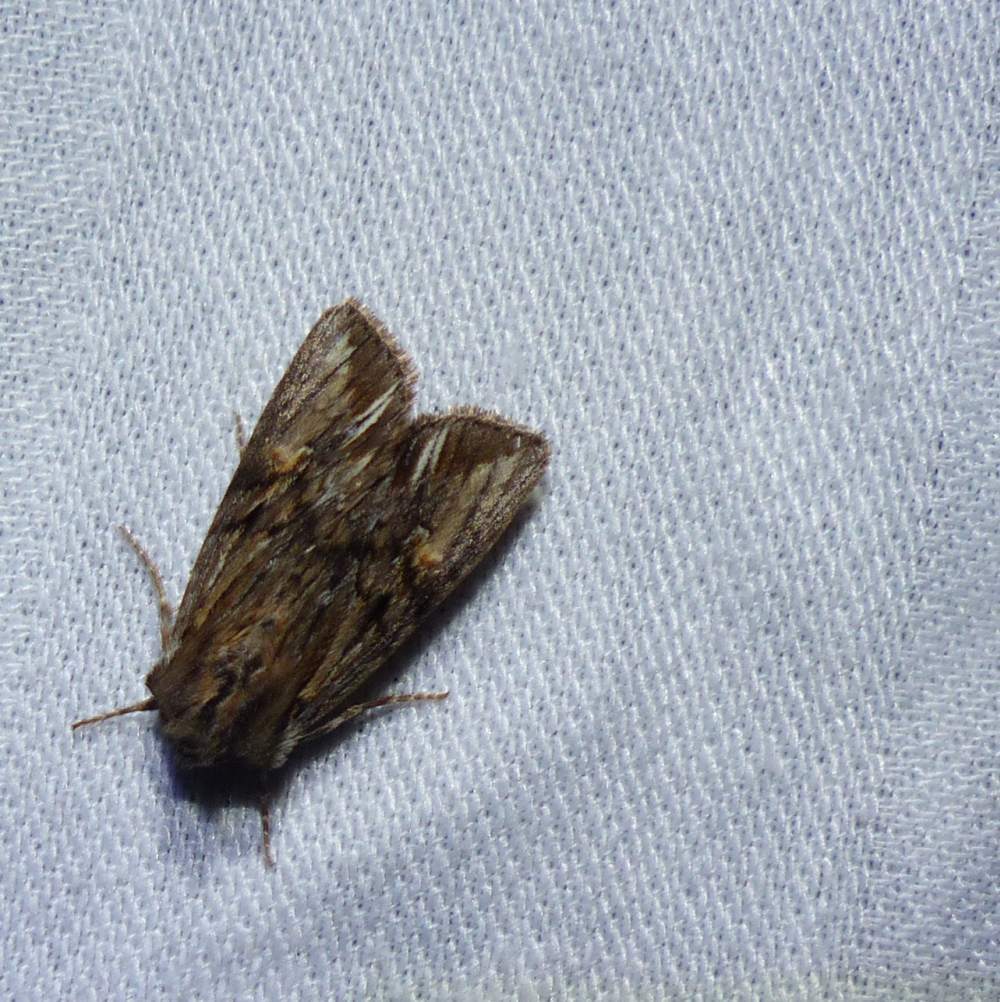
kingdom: Animalia
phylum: Arthropoda
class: Insecta
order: Lepidoptera
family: Noctuidae
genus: Achatia
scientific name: Achatia evicta
